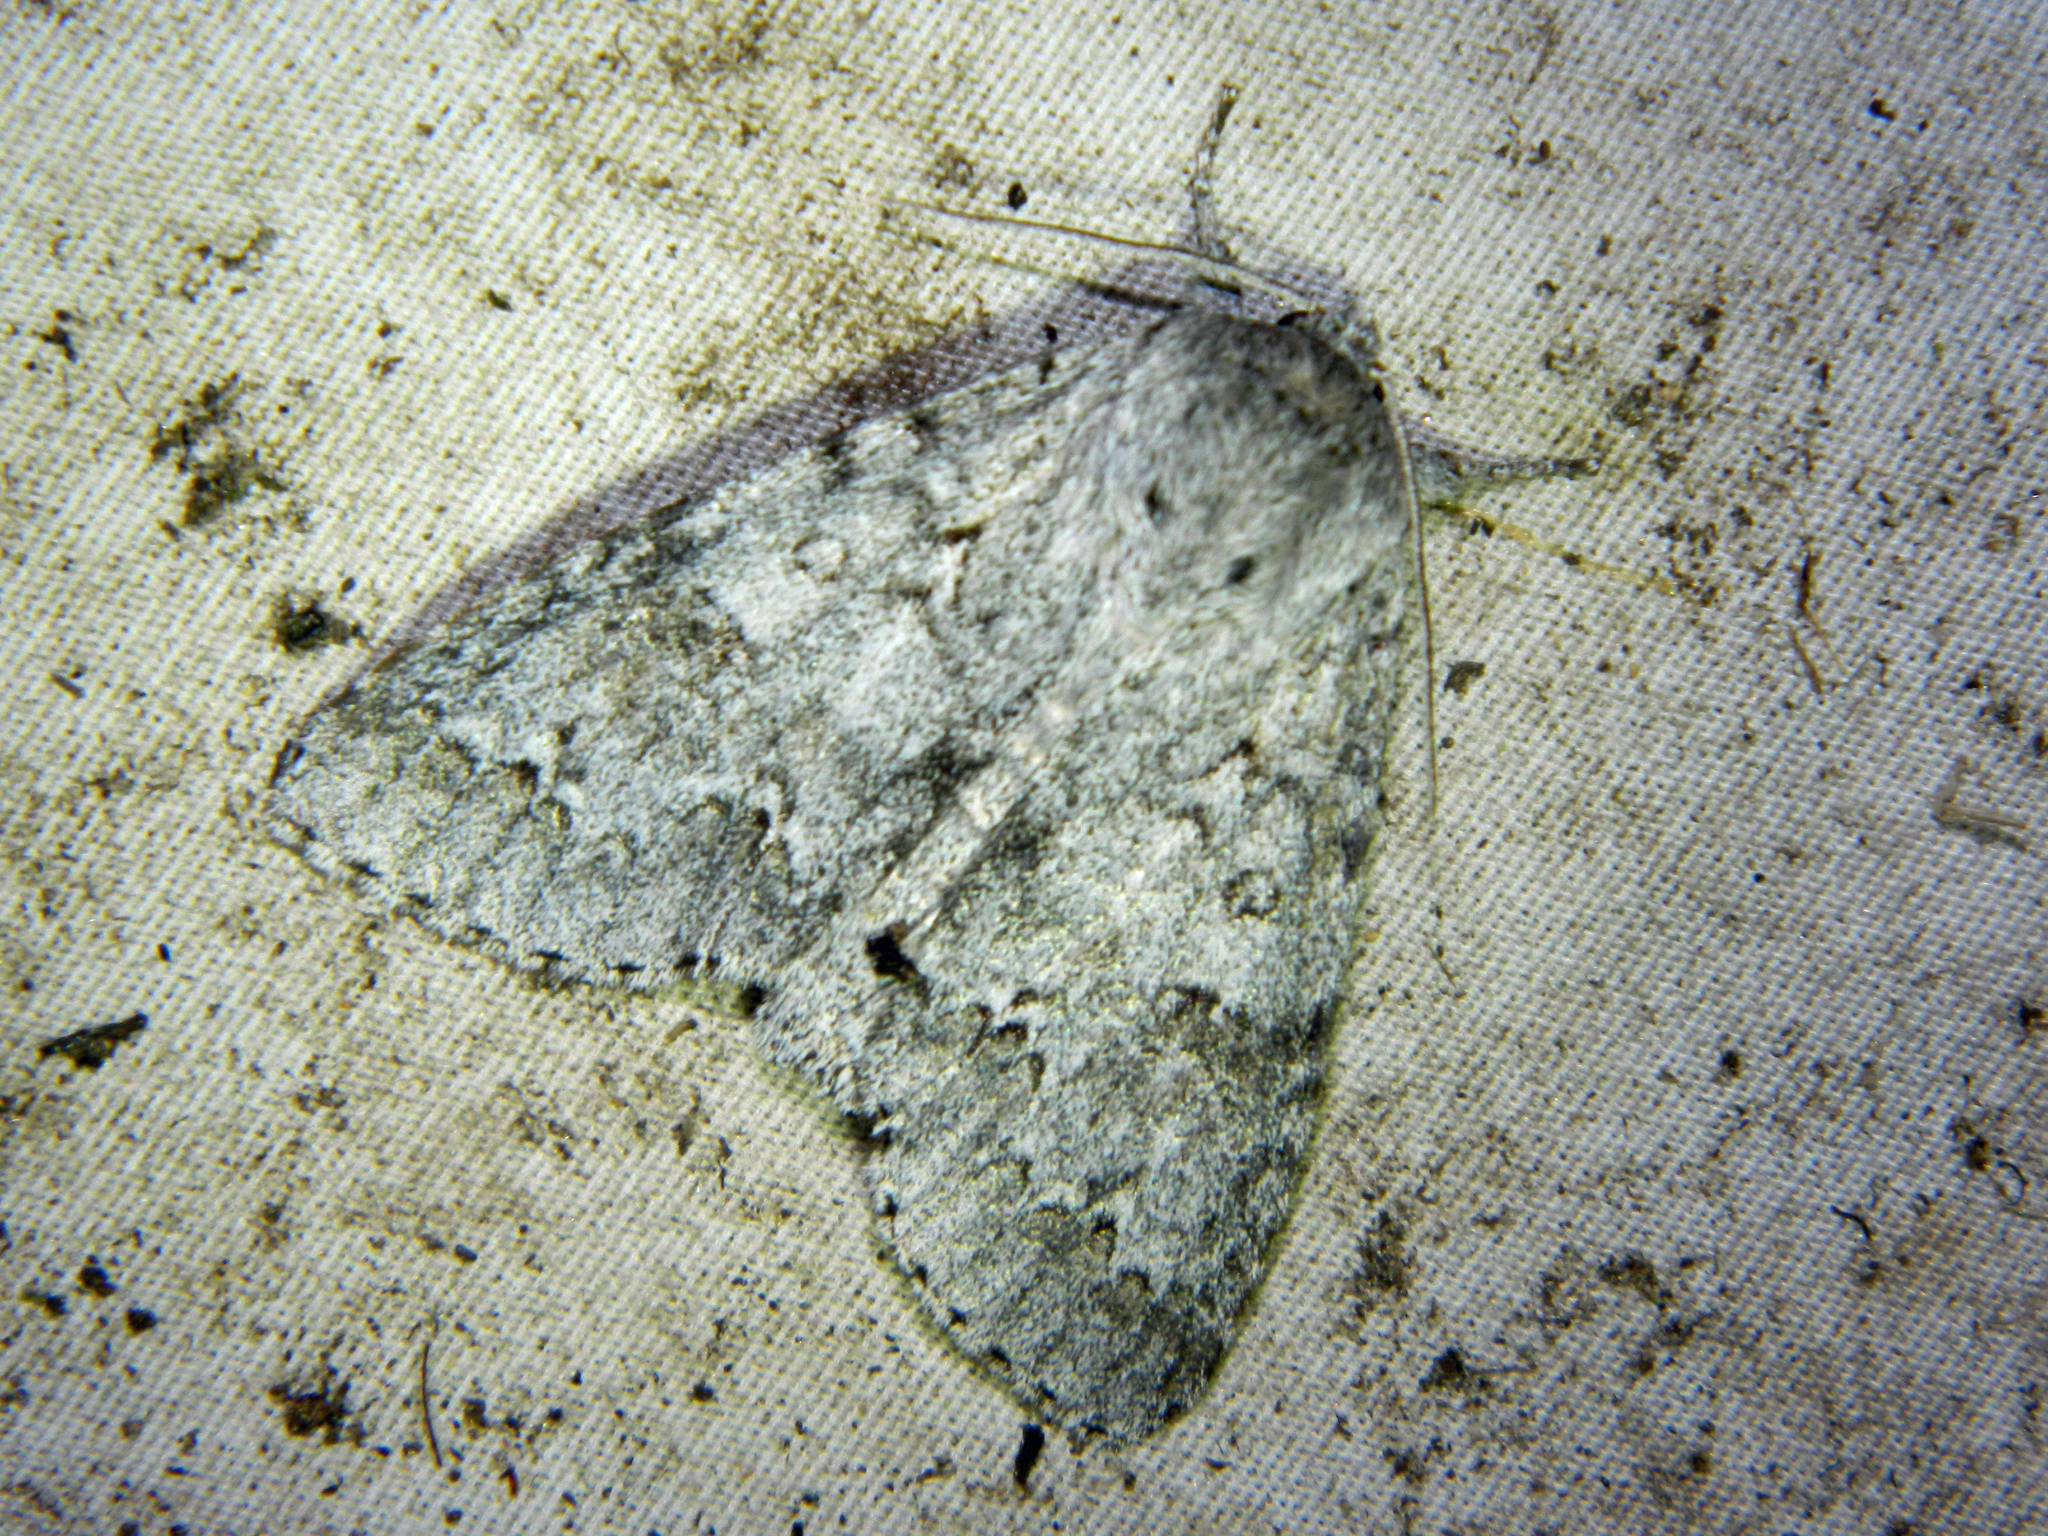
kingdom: Animalia
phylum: Arthropoda
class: Insecta
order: Lepidoptera
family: Noctuidae
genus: Acronicta
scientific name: Acronicta insita
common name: Large gray dagger
